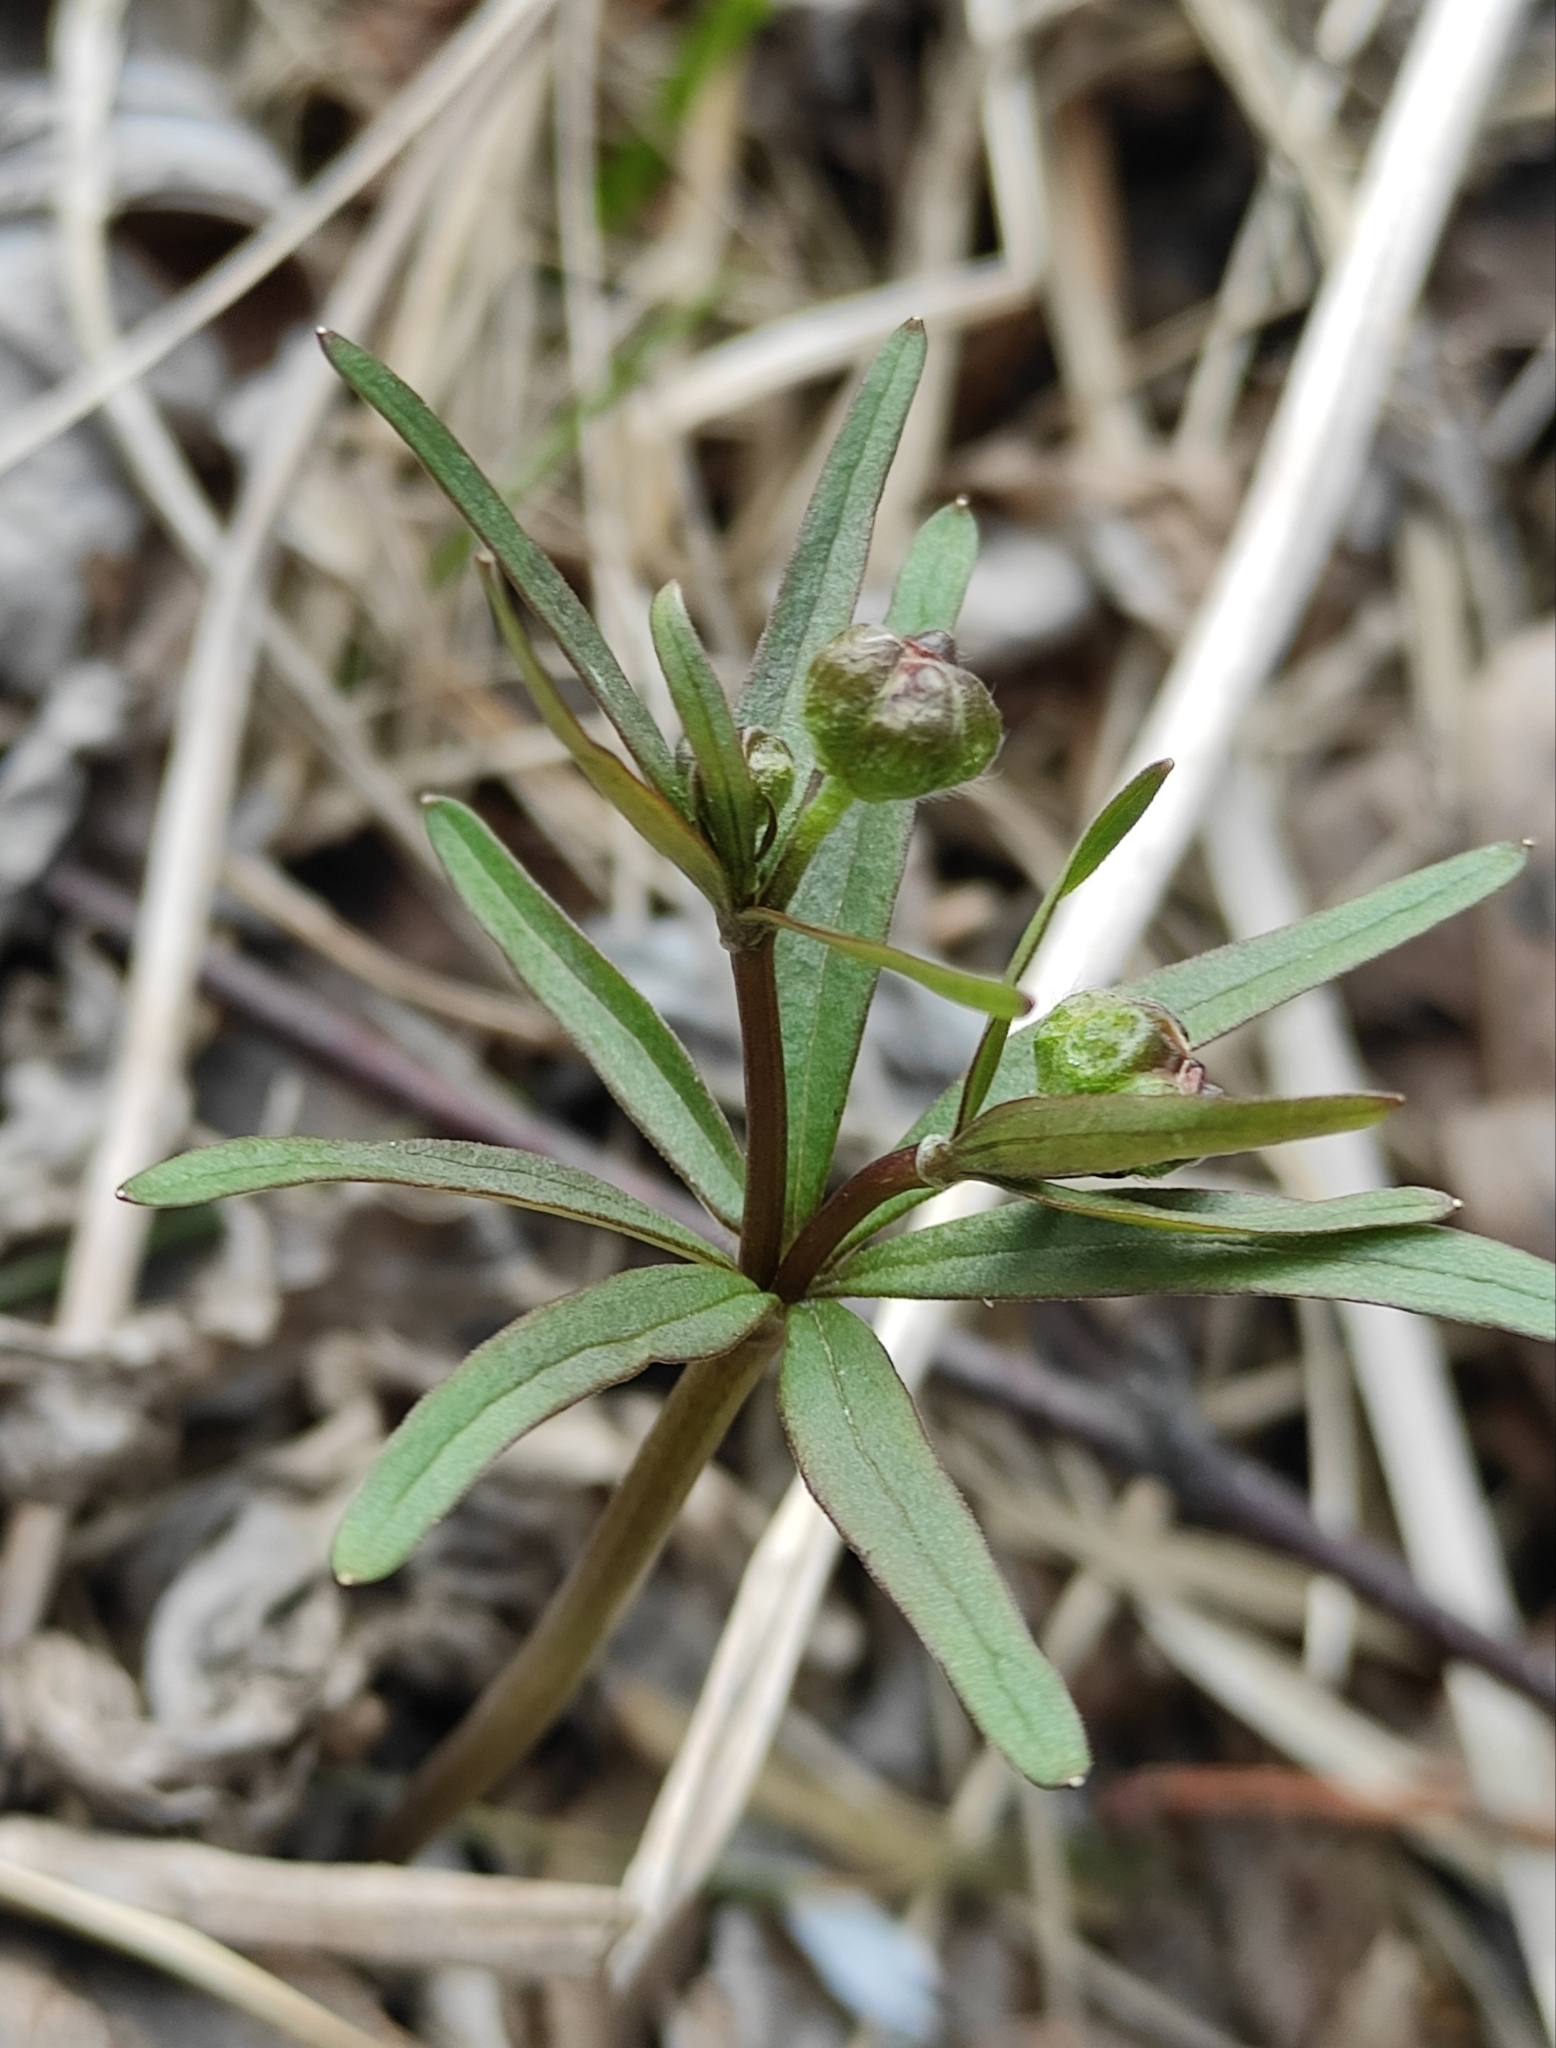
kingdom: Plantae
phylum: Tracheophyta
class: Magnoliopsida
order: Ranunculales
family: Ranunculaceae
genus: Ranunculus
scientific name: Ranunculus monophyllus
